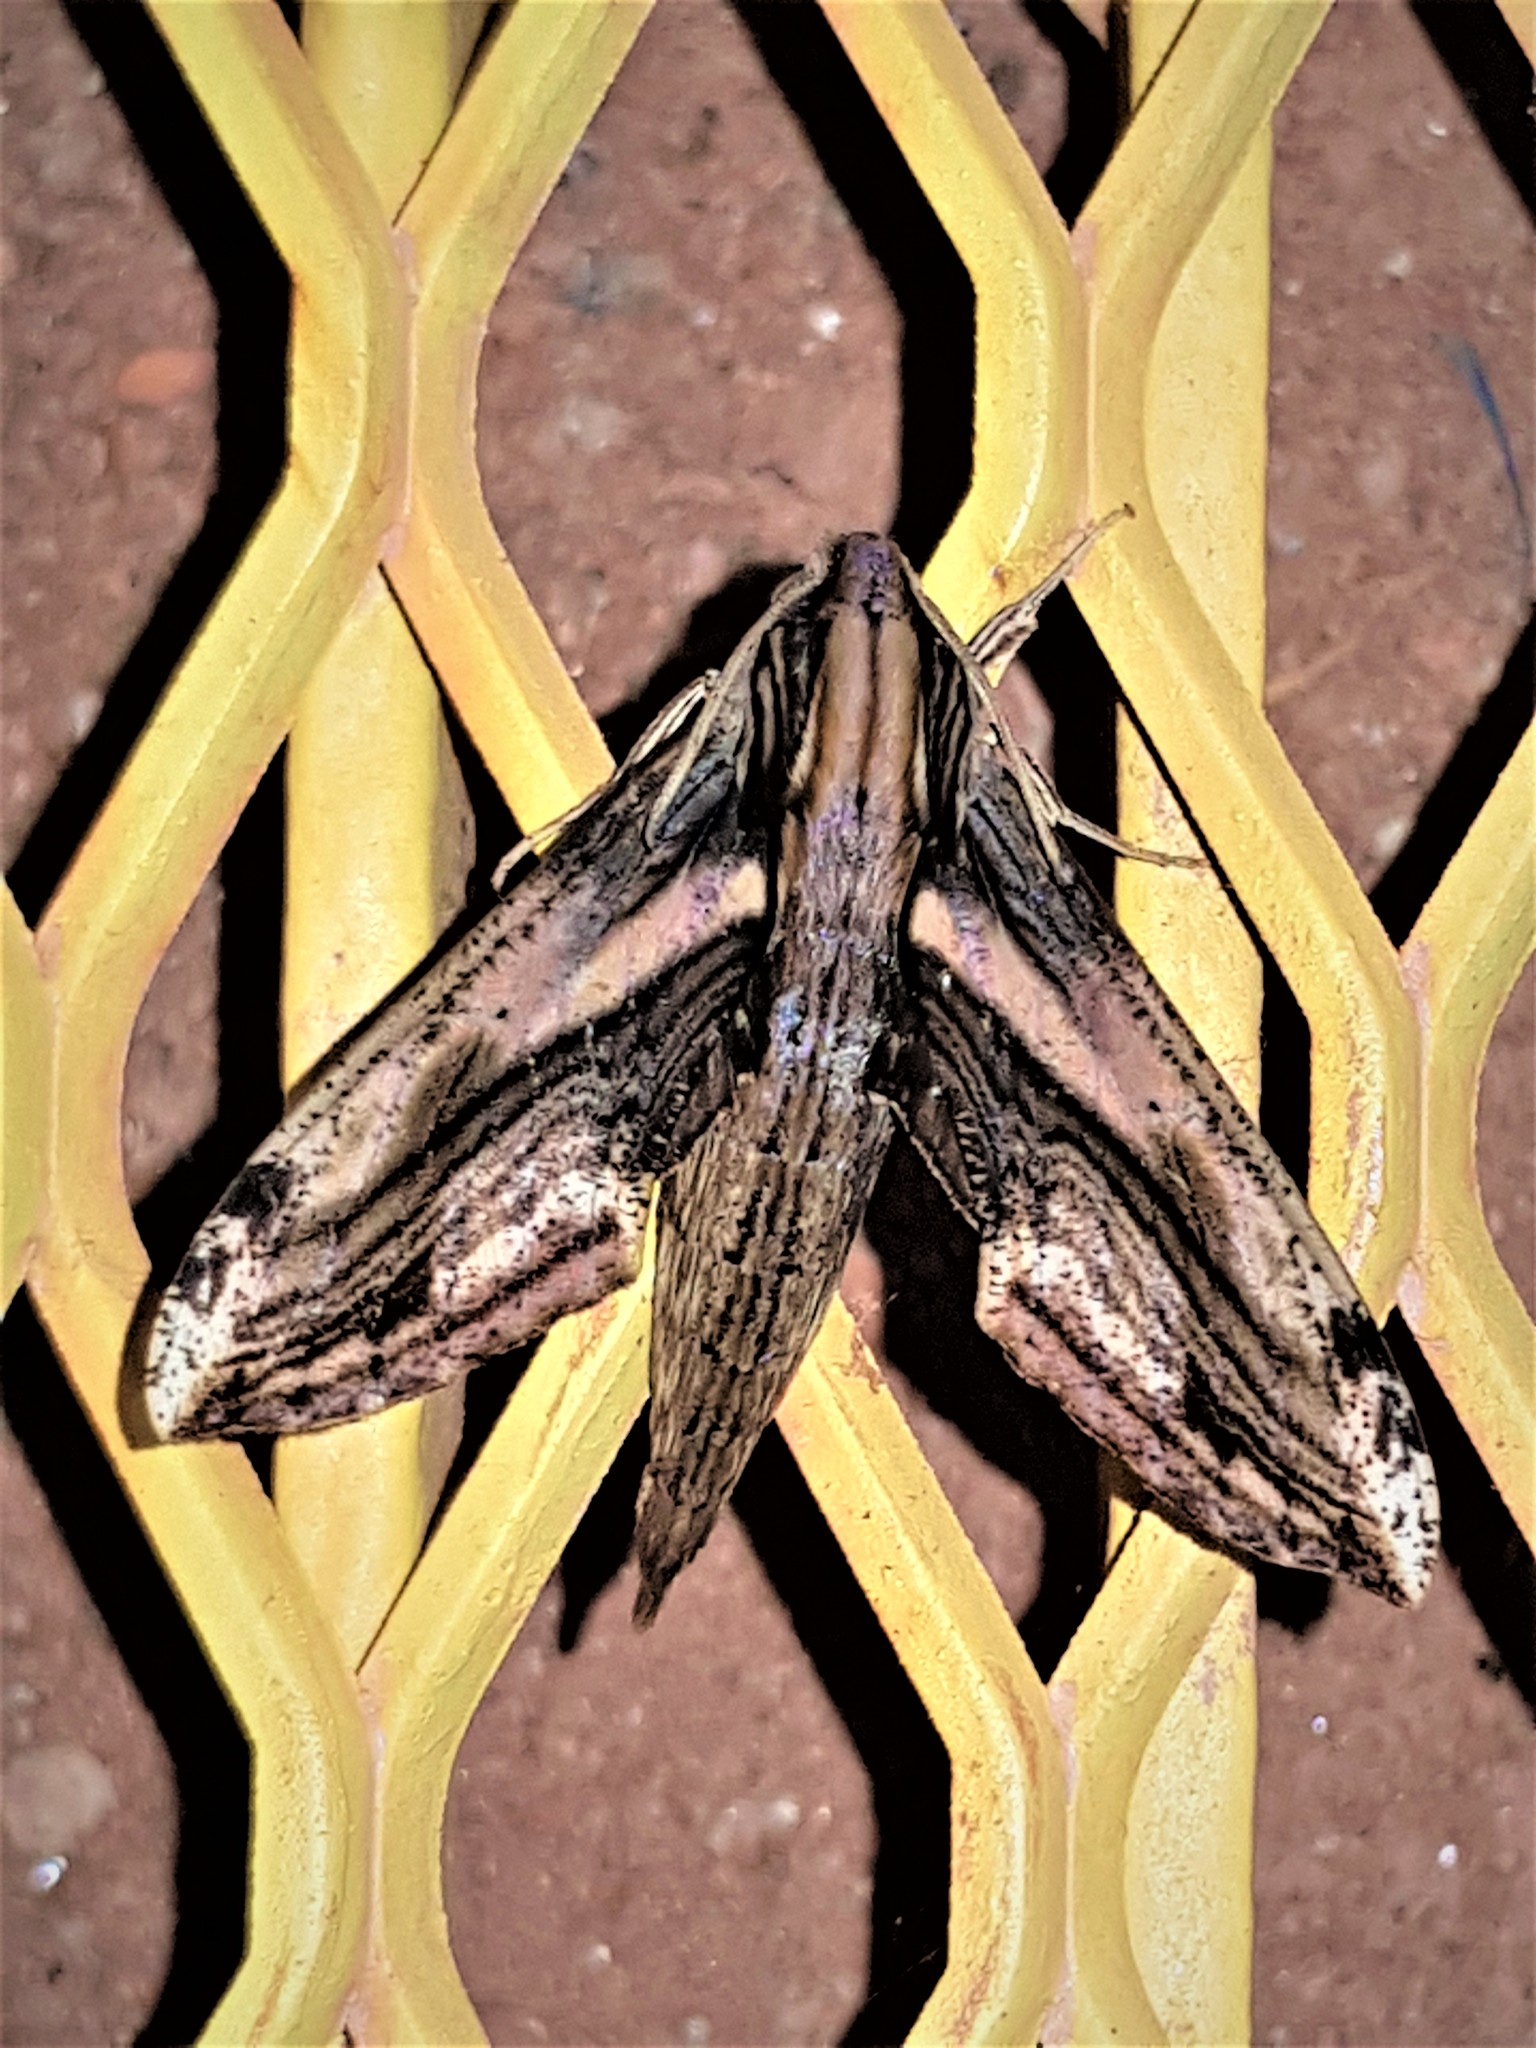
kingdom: Animalia
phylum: Arthropoda
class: Insecta
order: Lepidoptera
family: Sphingidae
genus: Xylophanes
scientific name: Xylophanes beneluzi
